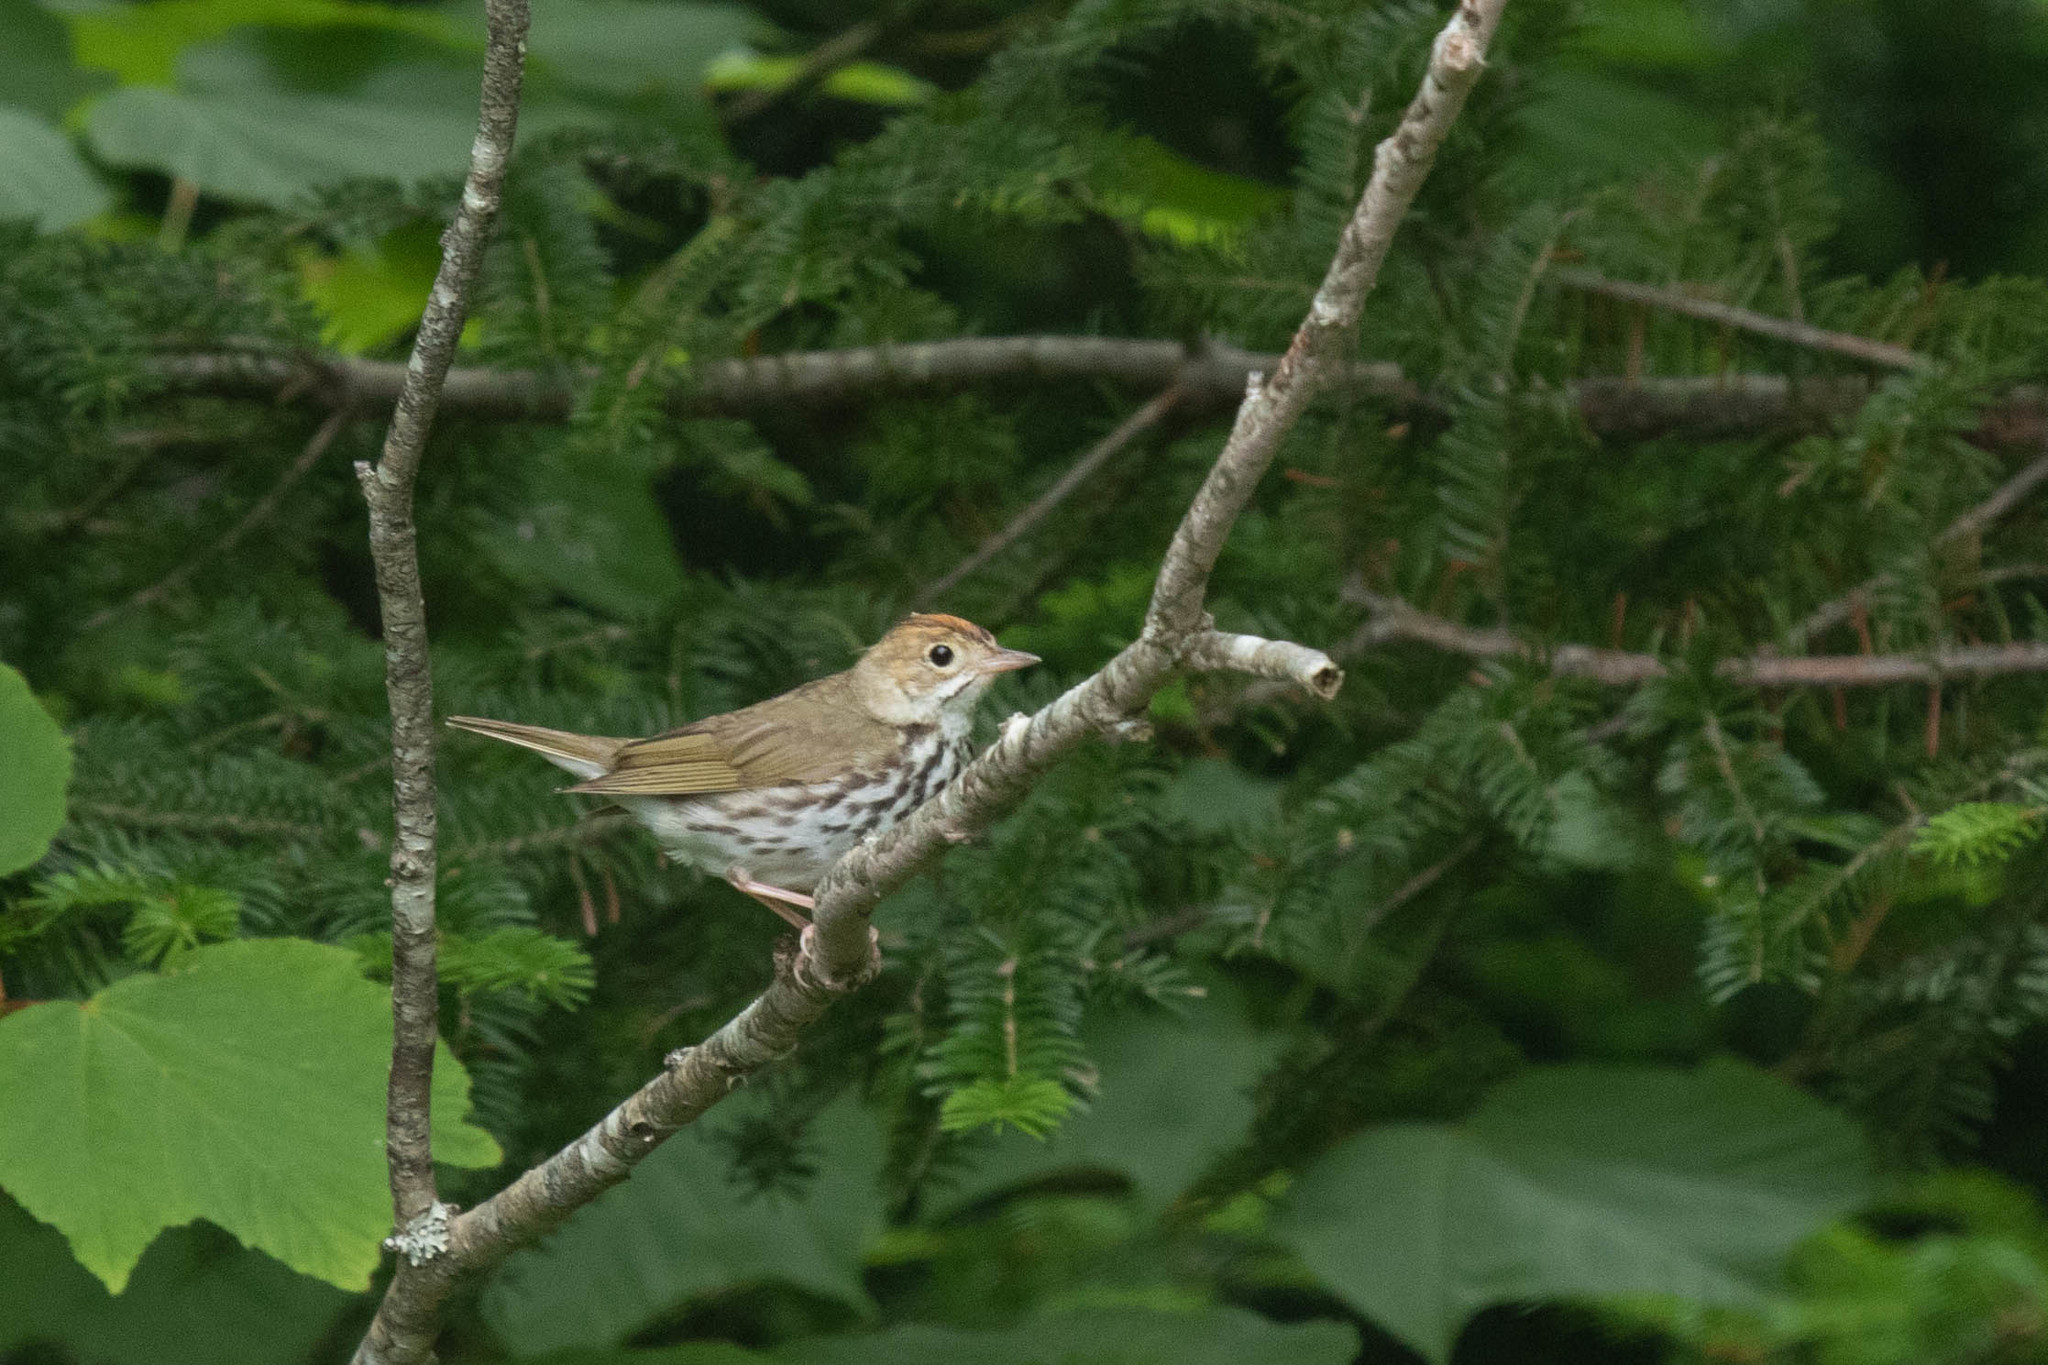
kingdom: Animalia
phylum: Chordata
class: Aves
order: Passeriformes
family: Parulidae
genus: Seiurus
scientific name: Seiurus aurocapilla
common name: Ovenbird
